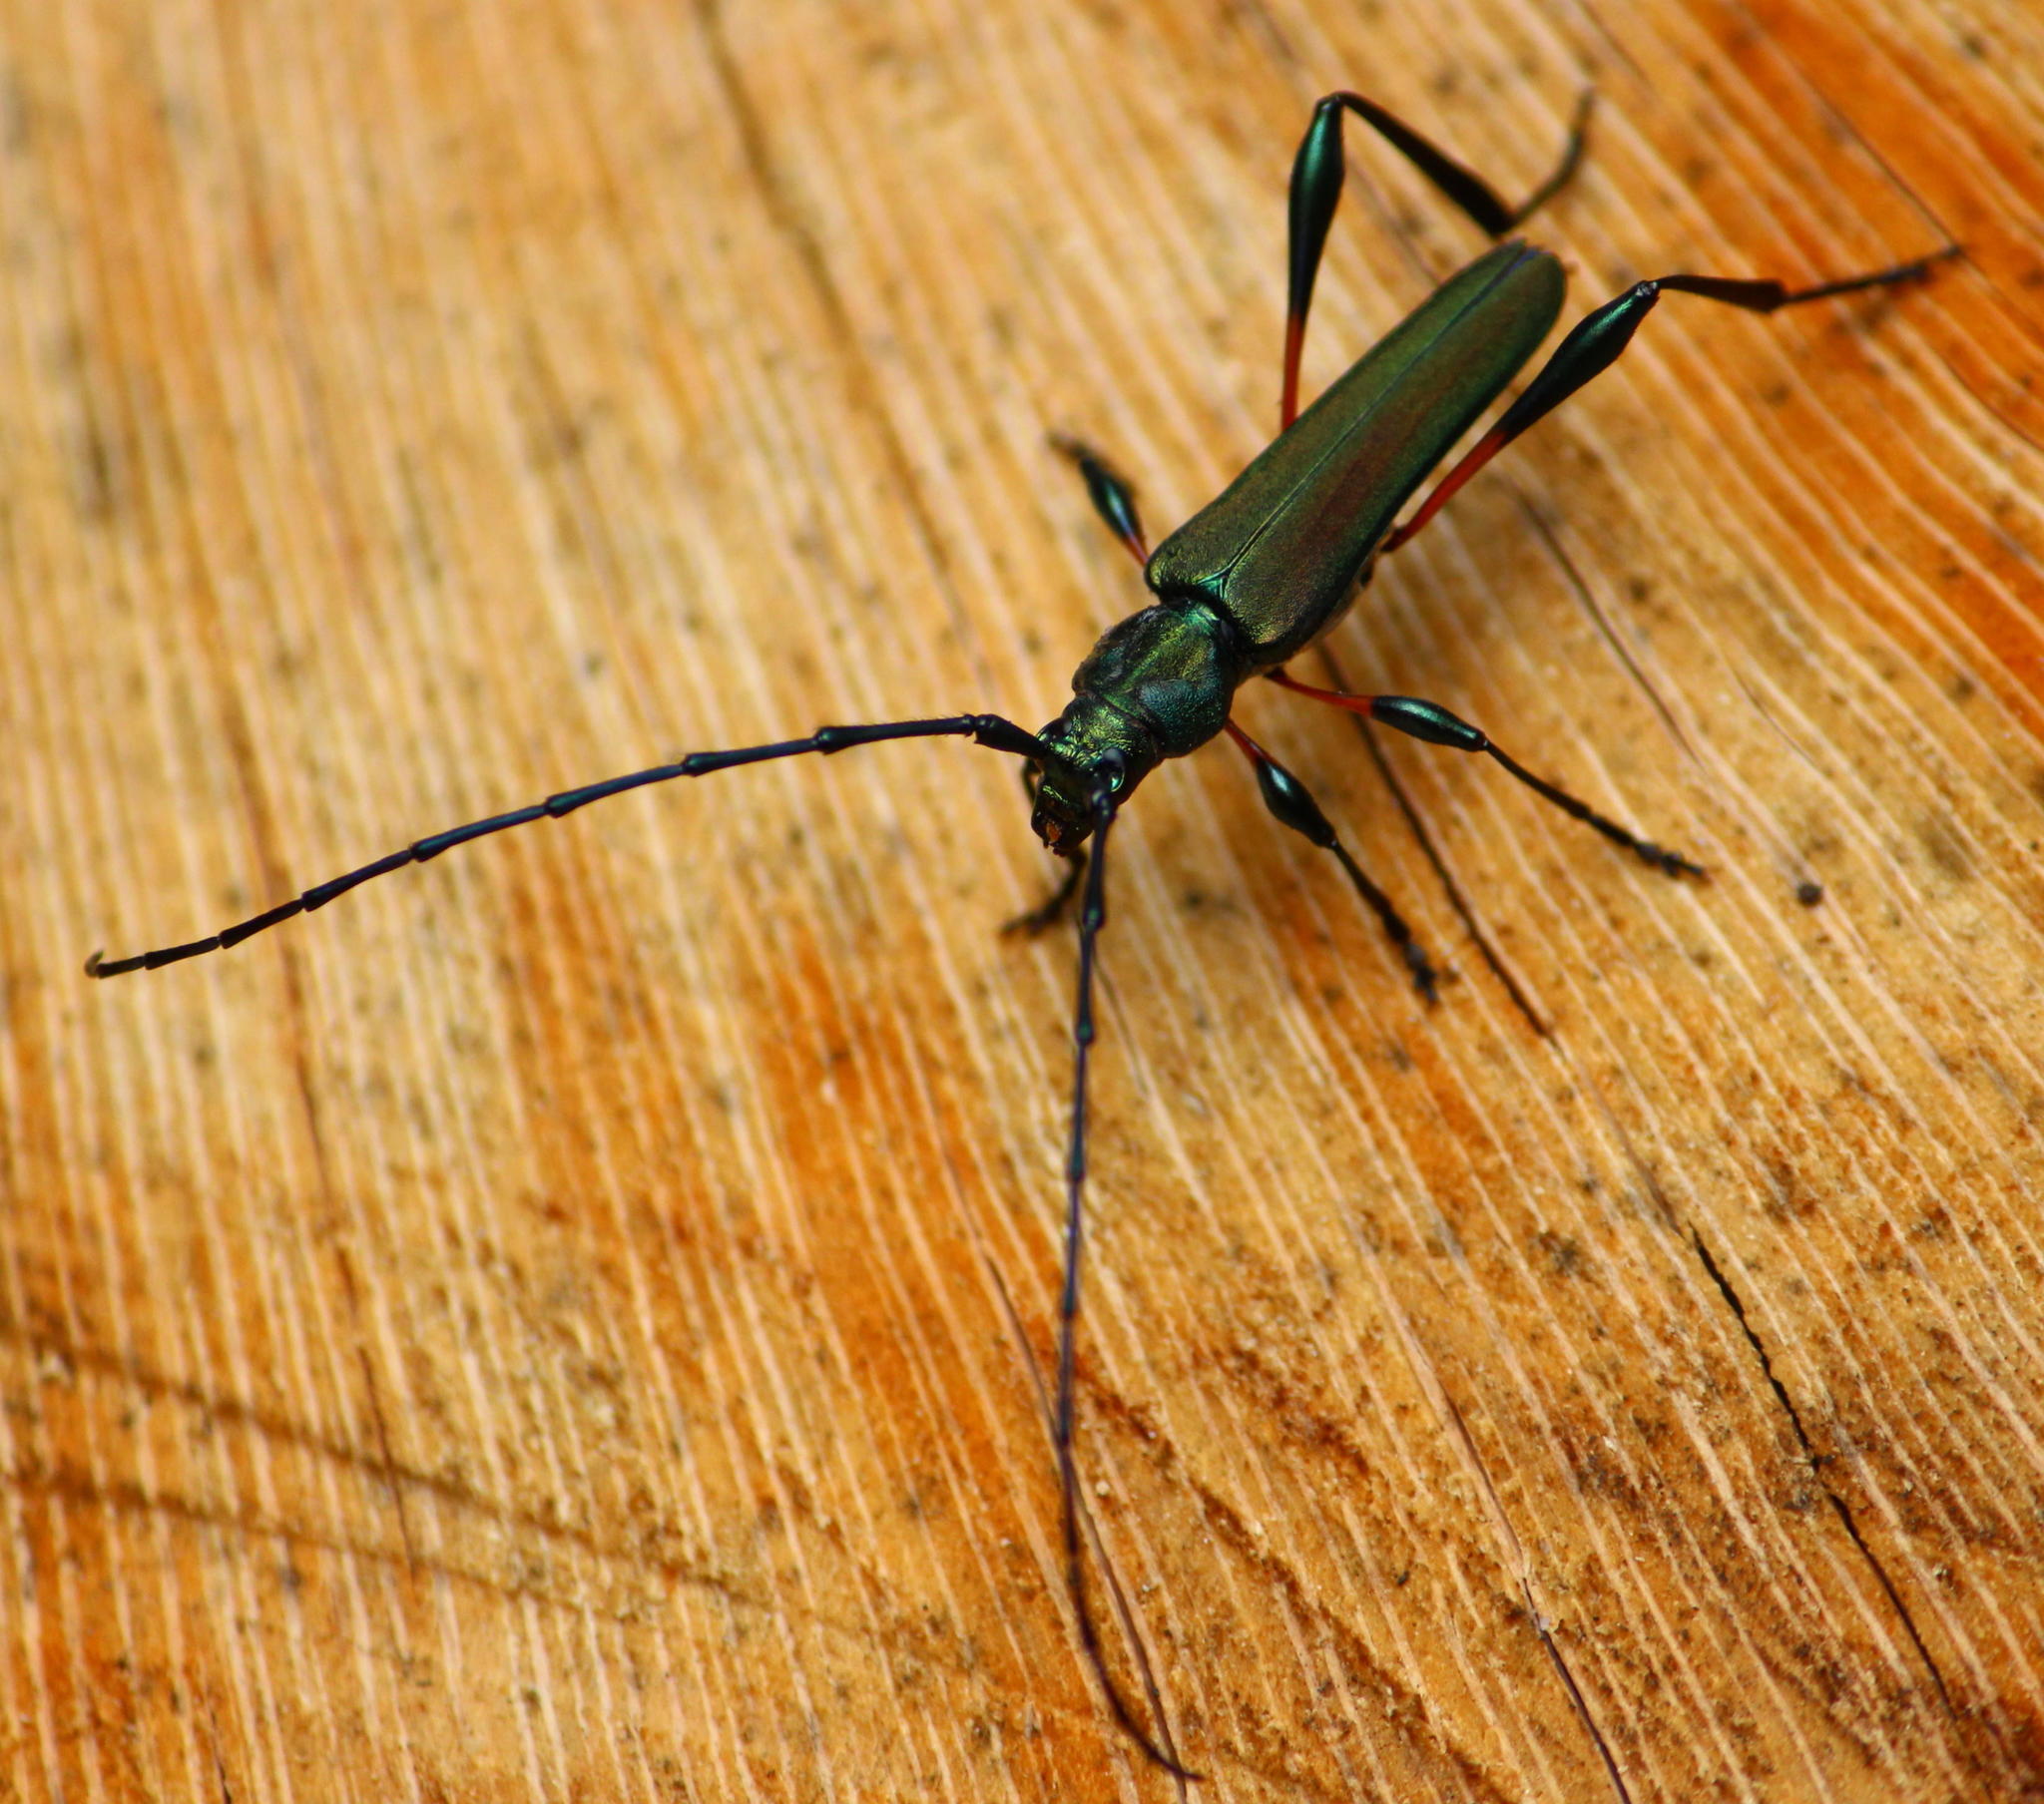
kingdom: Animalia
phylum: Arthropoda
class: Insecta
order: Coleoptera
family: Cerambycidae
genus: Litopus
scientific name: Litopus latipes
